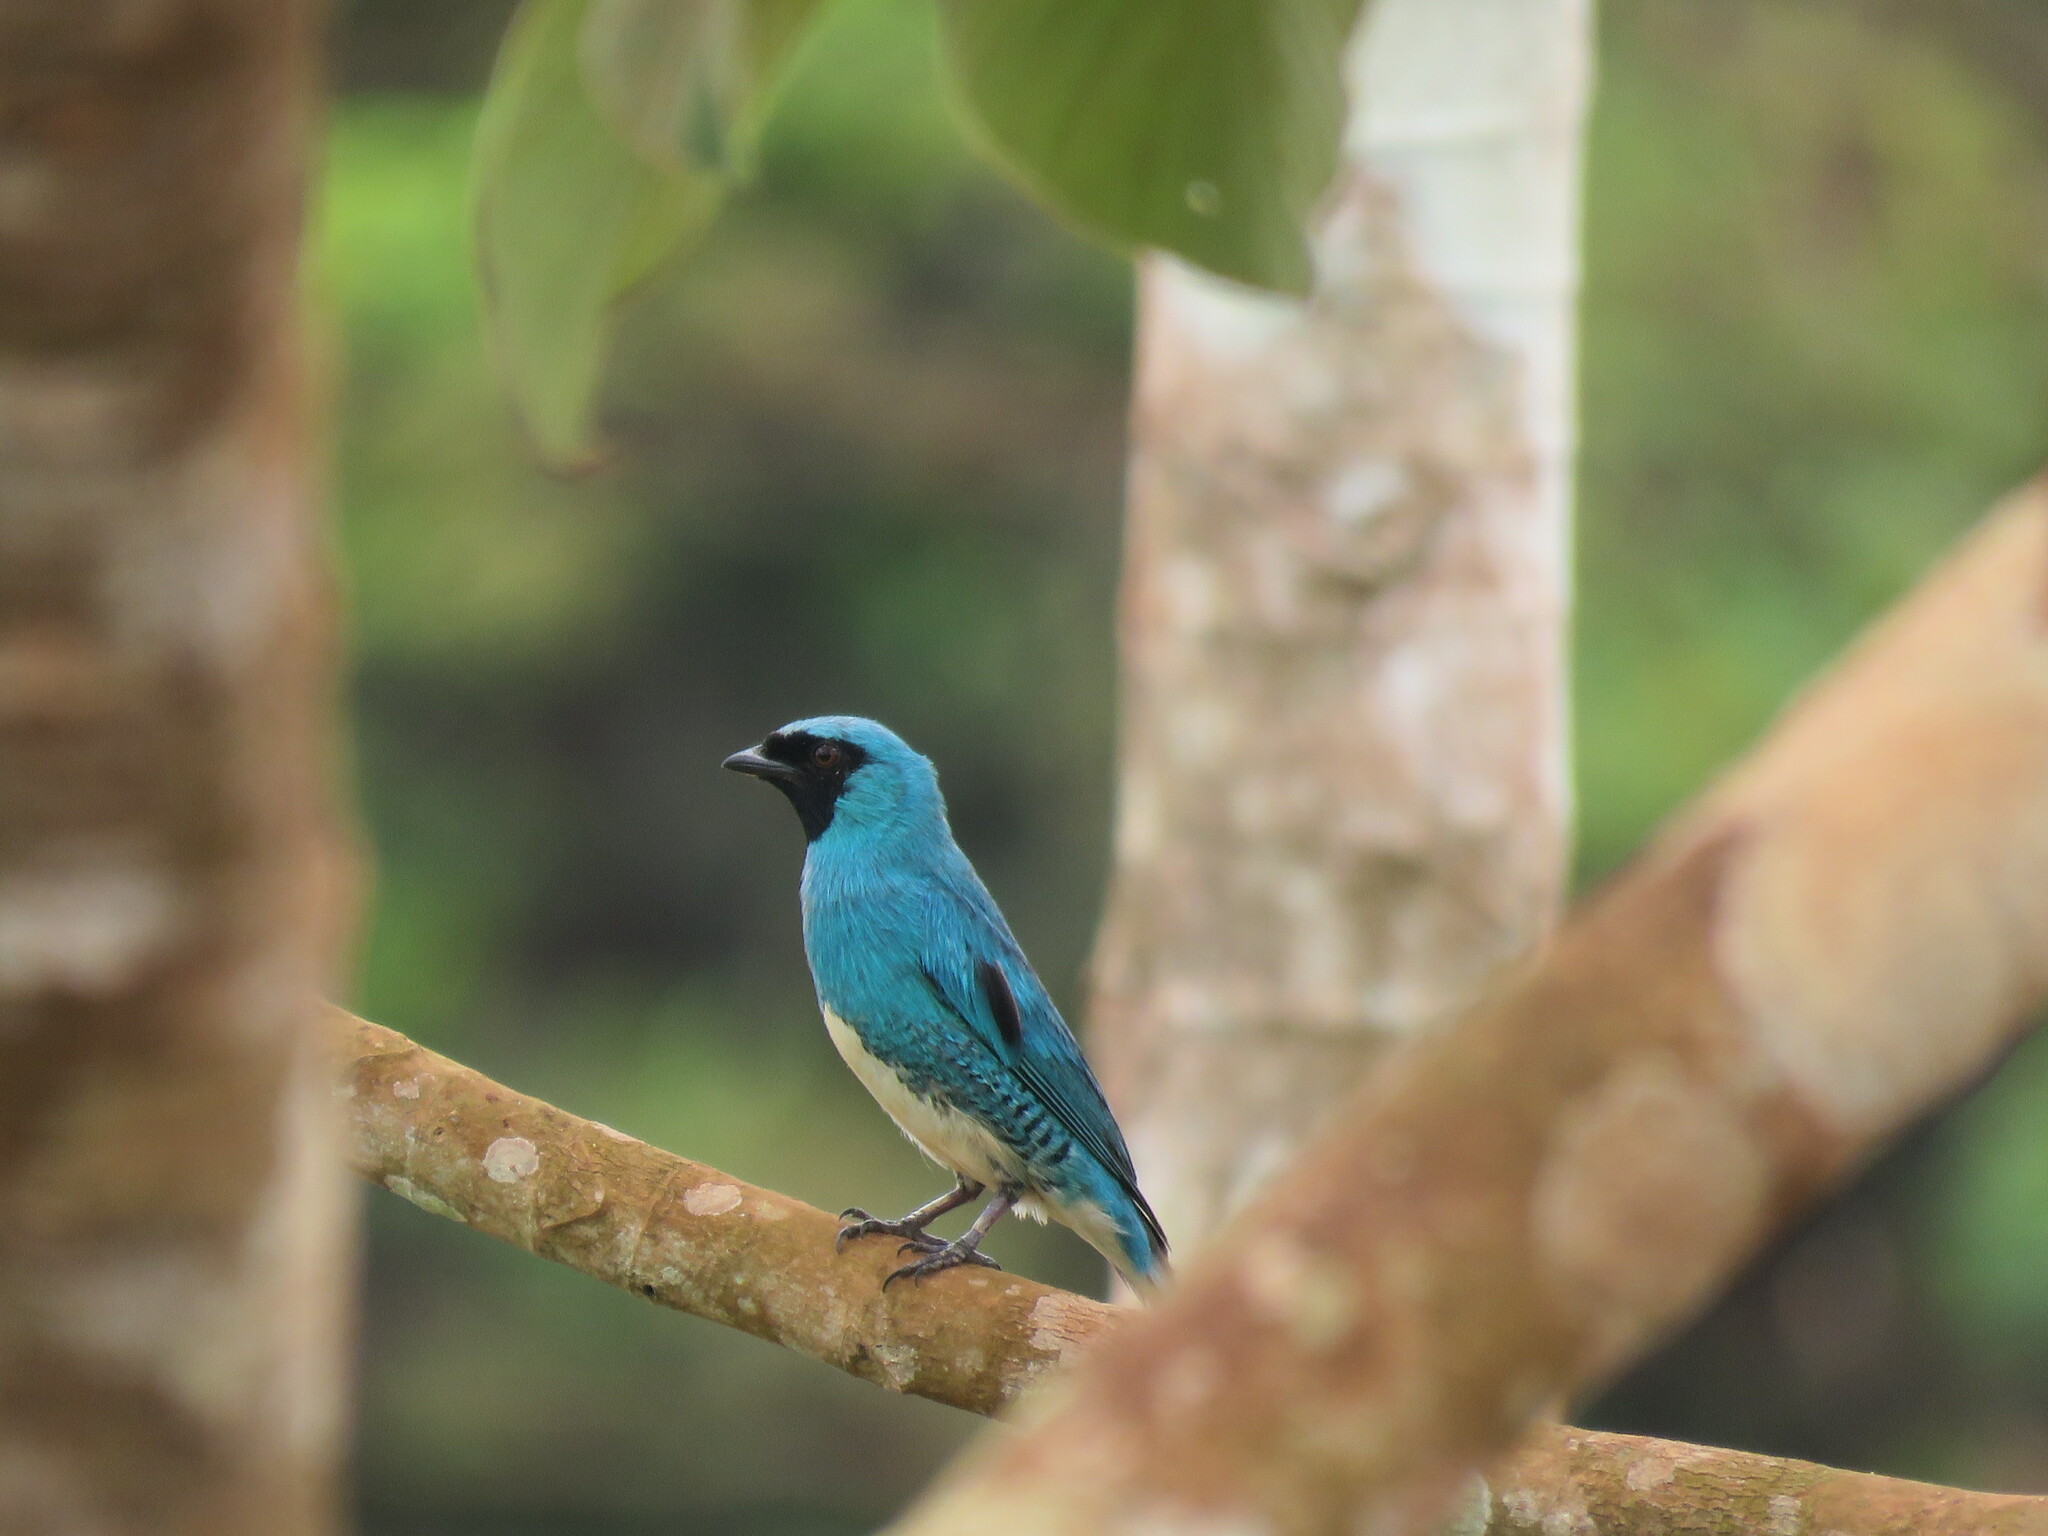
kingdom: Animalia
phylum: Chordata
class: Aves
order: Passeriformes
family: Thraupidae
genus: Tersina
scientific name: Tersina viridis
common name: Swallow tanager
